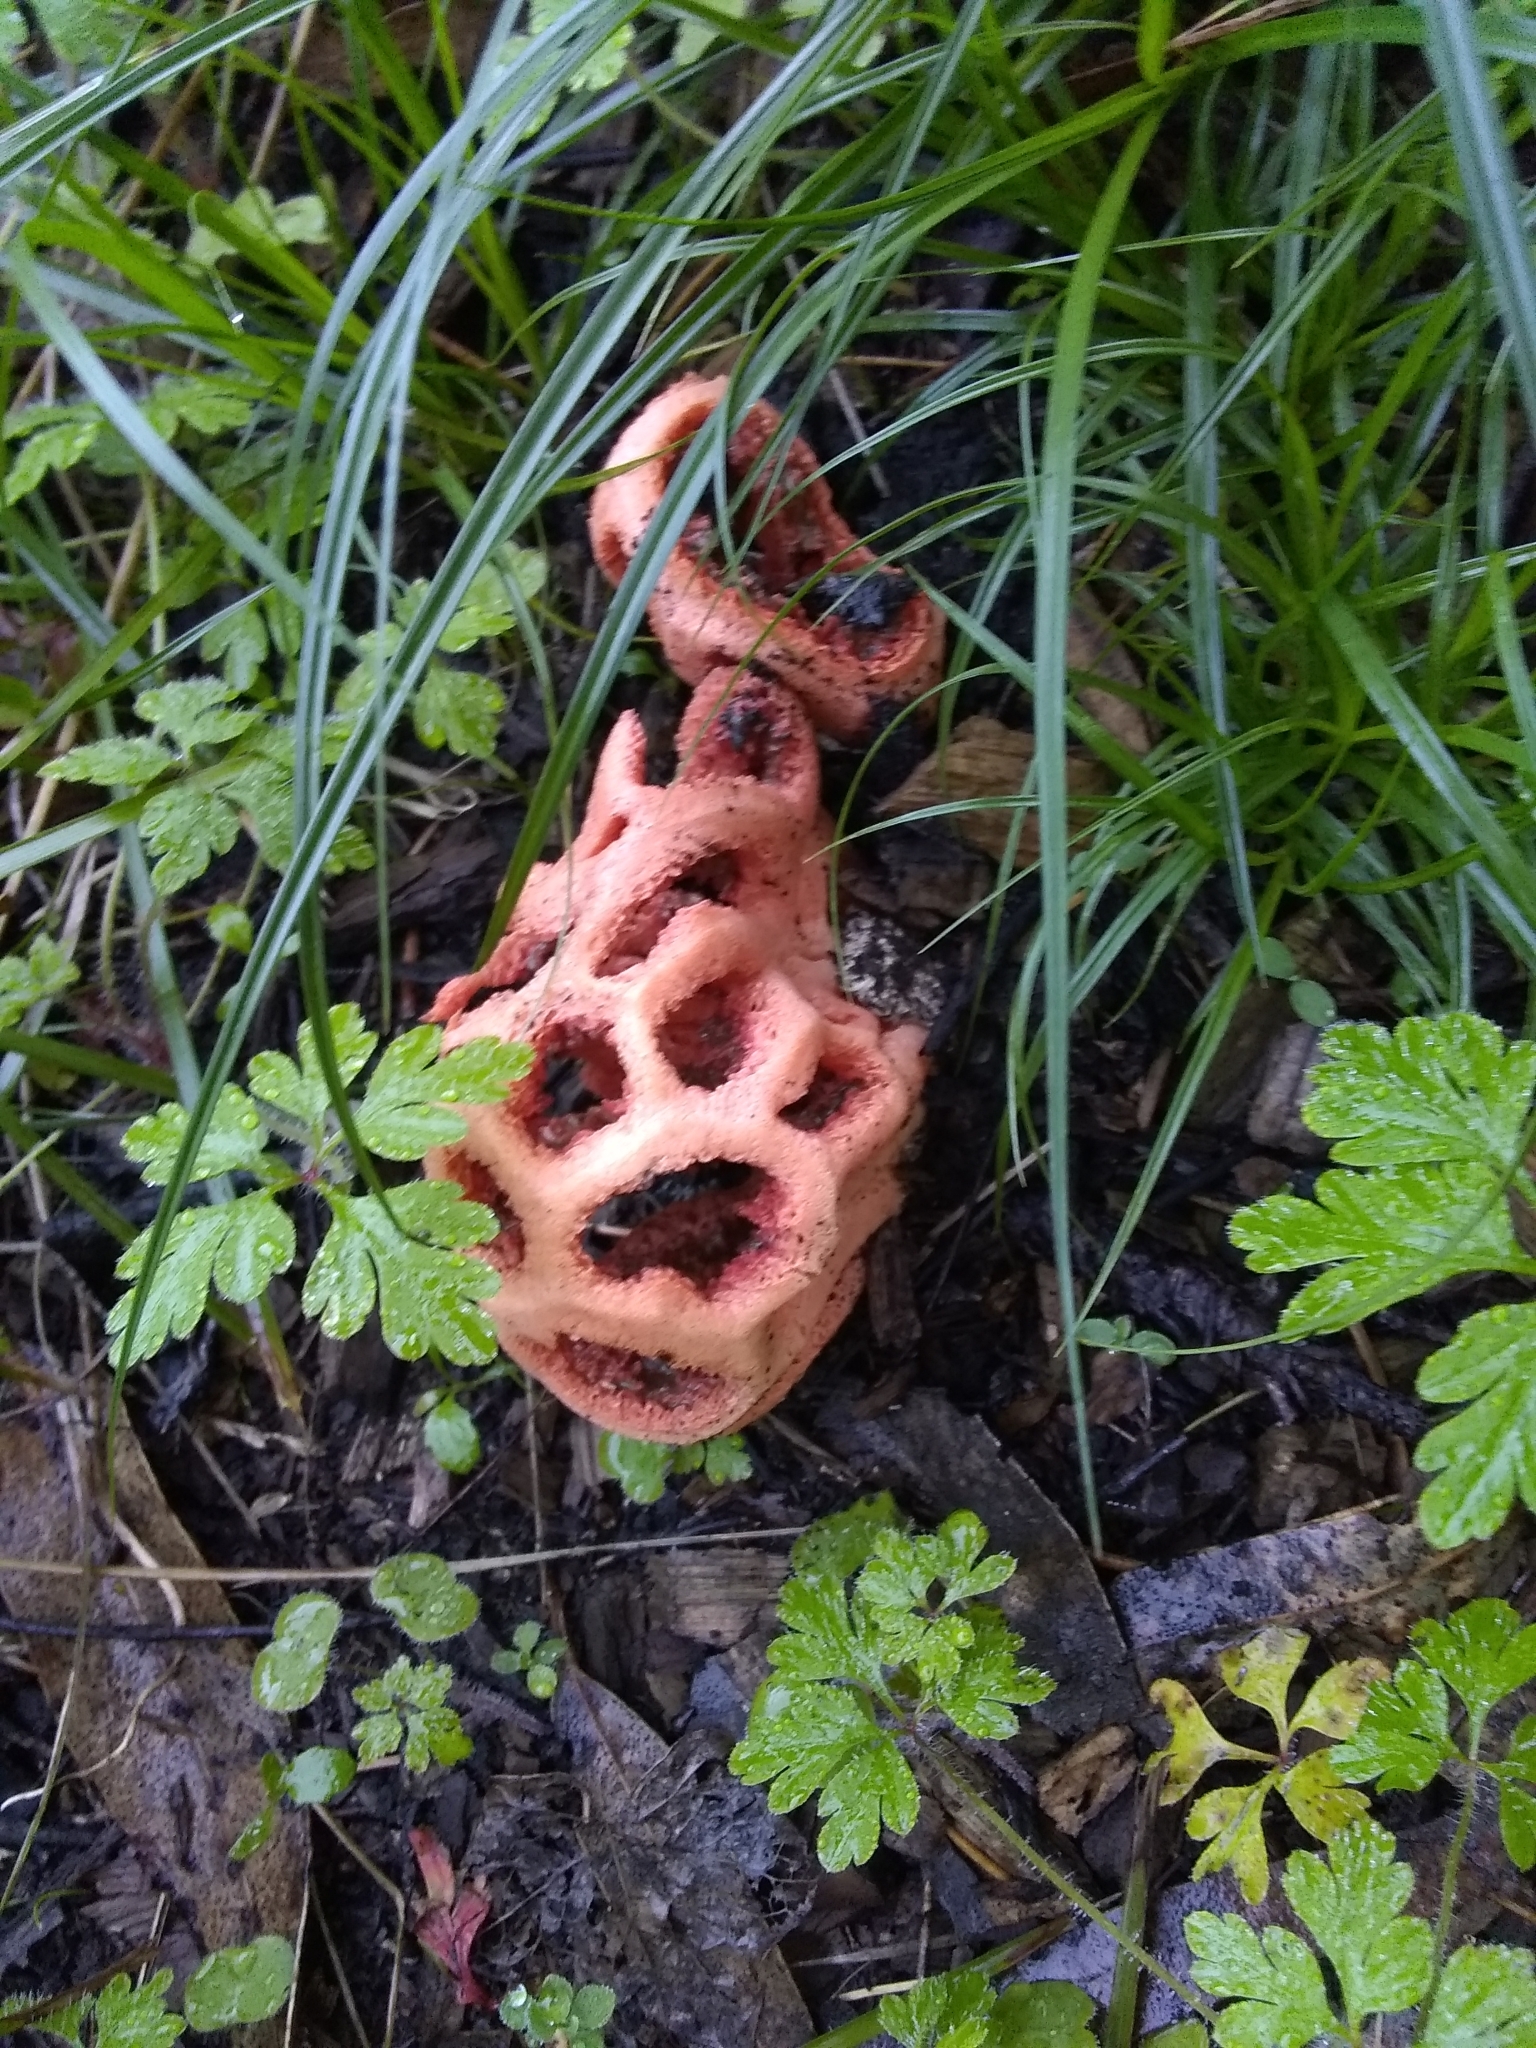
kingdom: Fungi
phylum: Basidiomycota
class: Agaricomycetes
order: Phallales
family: Phallaceae
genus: Clathrus
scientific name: Clathrus ruber
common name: Red cage
